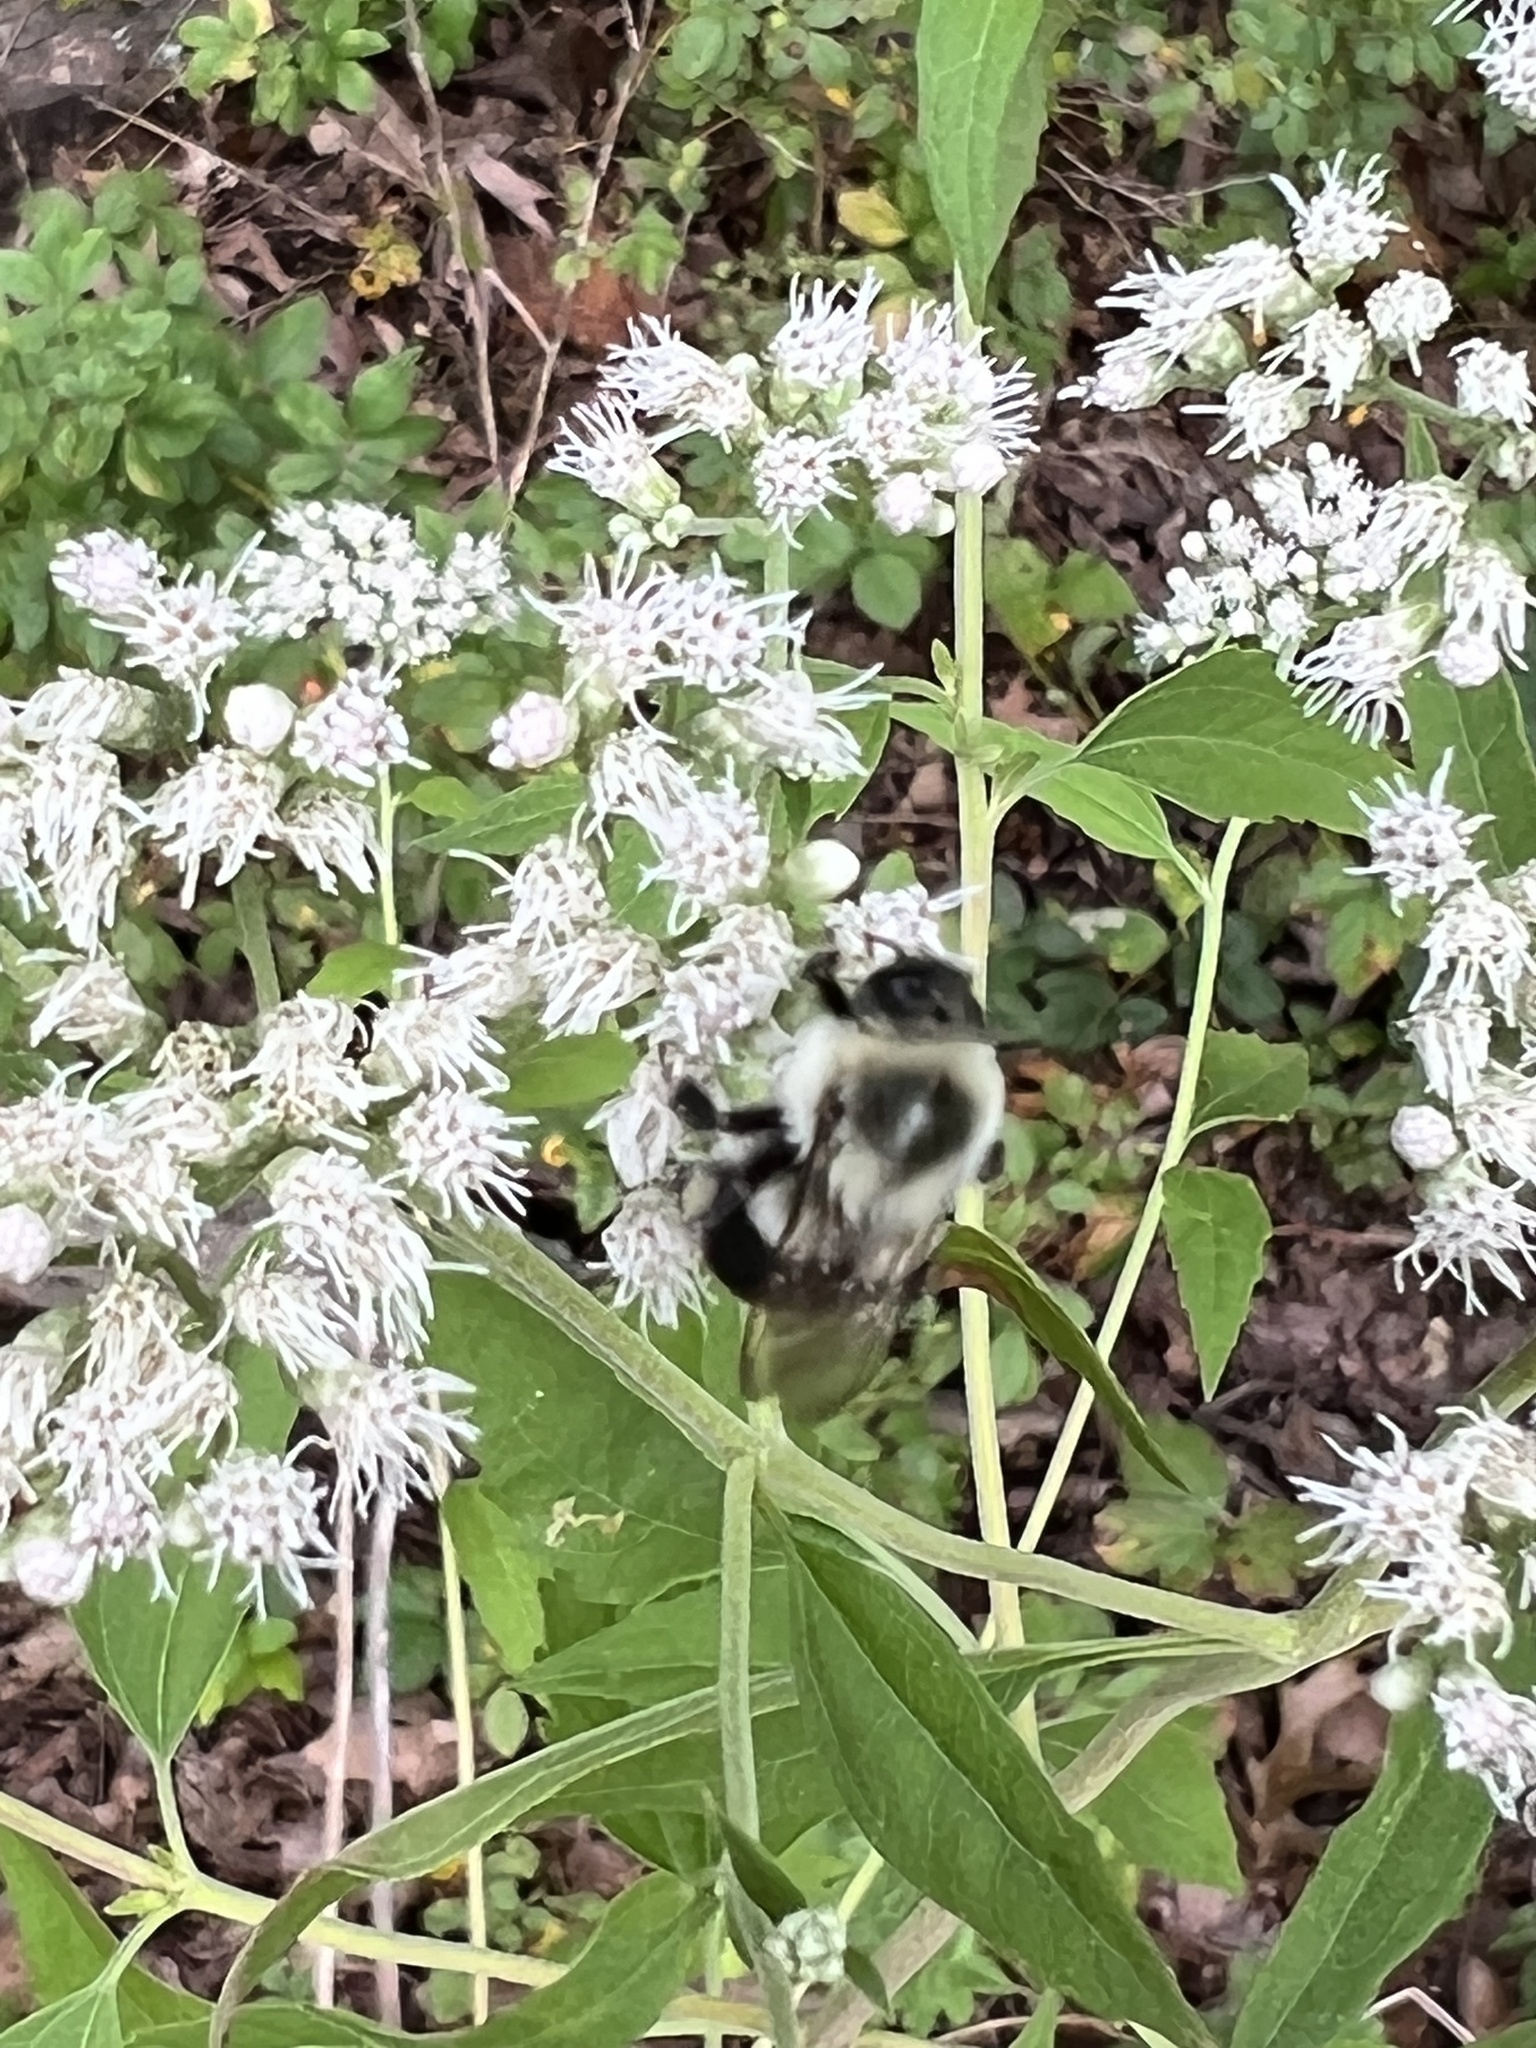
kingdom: Animalia
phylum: Arthropoda
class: Insecta
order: Hymenoptera
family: Apidae
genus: Bombus
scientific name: Bombus impatiens
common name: Common eastern bumble bee
